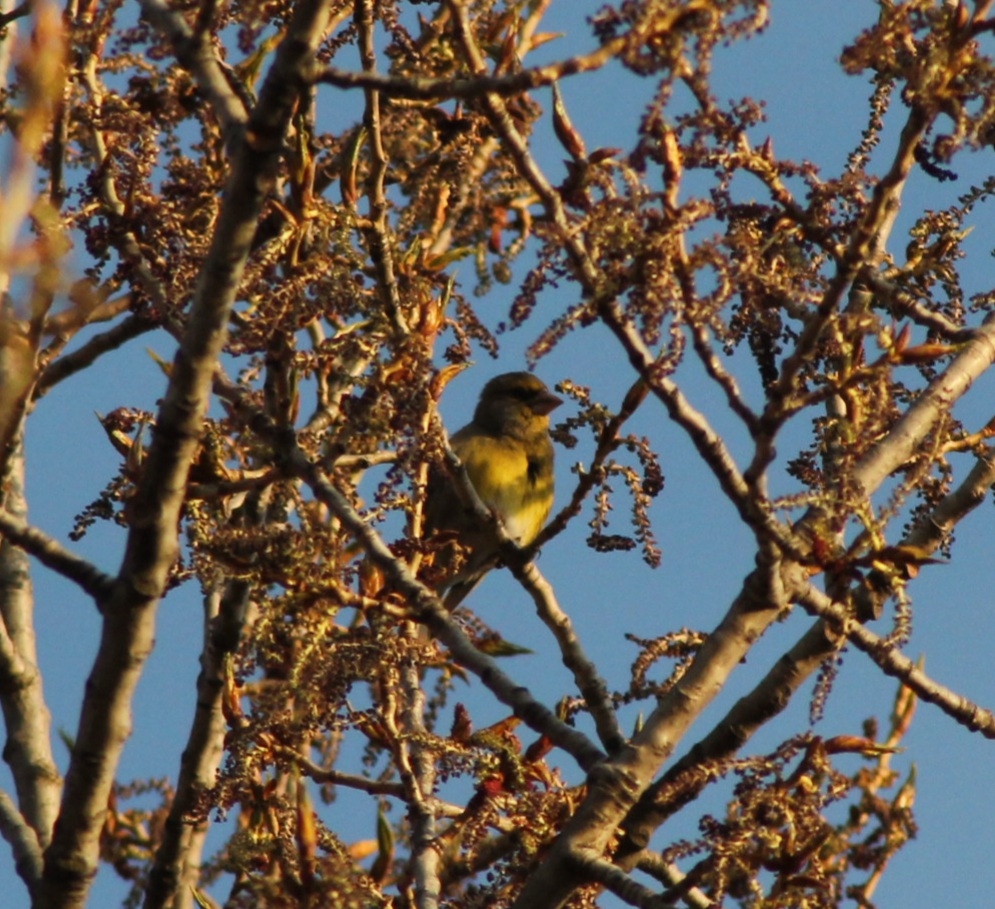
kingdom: Plantae
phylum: Tracheophyta
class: Liliopsida
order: Poales
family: Poaceae
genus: Chloris
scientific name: Chloris chloris
